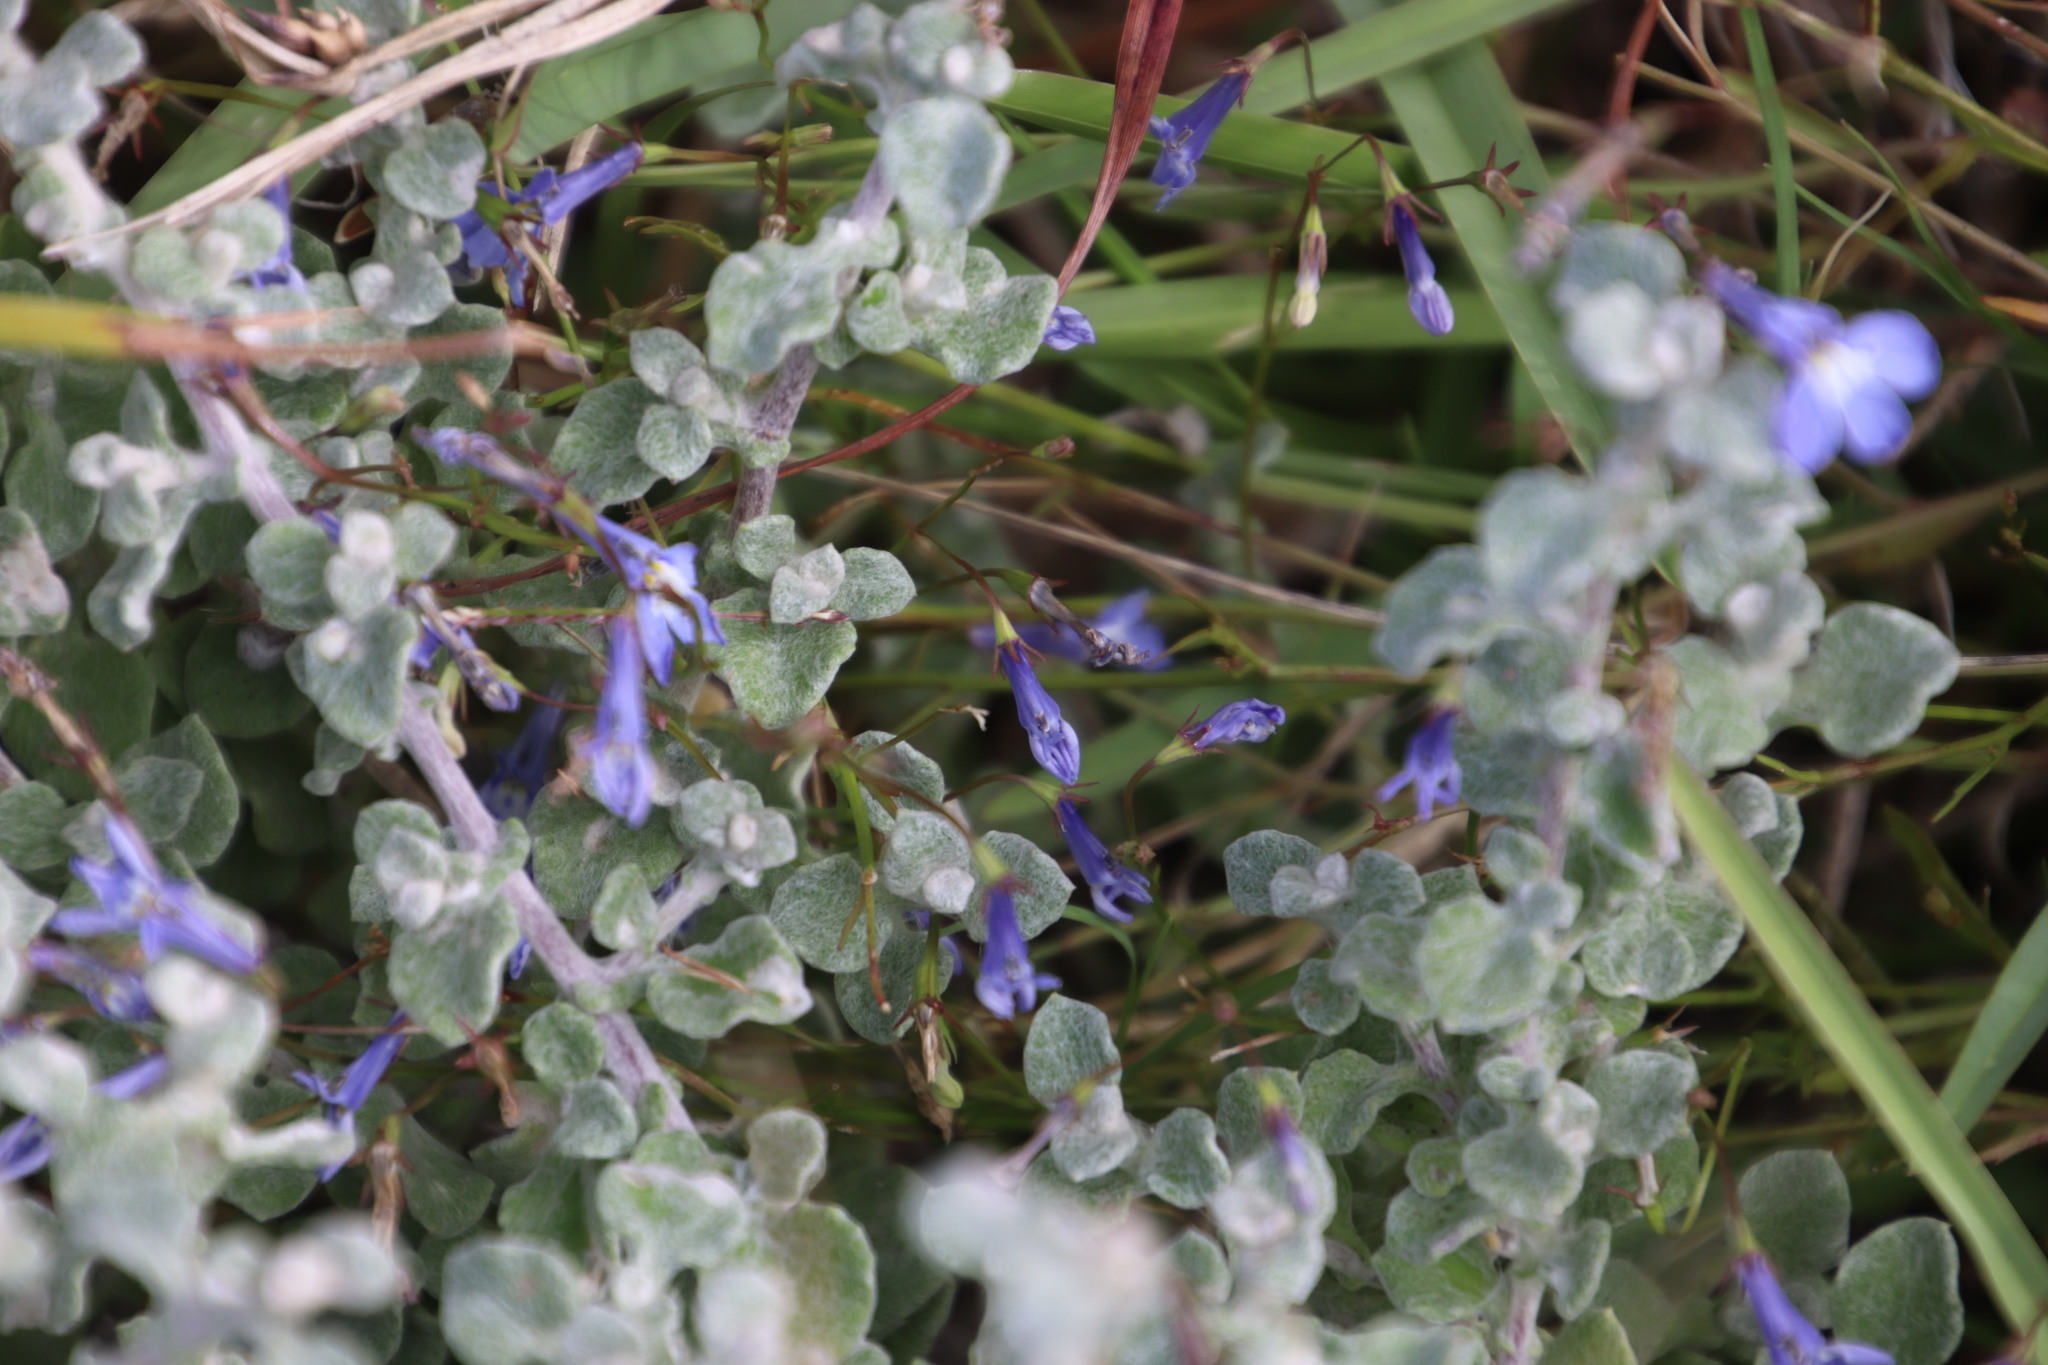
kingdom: Plantae
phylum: Tracheophyta
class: Magnoliopsida
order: Asterales
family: Campanulaceae
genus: Lobelia
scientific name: Lobelia erinus
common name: Edging lobelia
